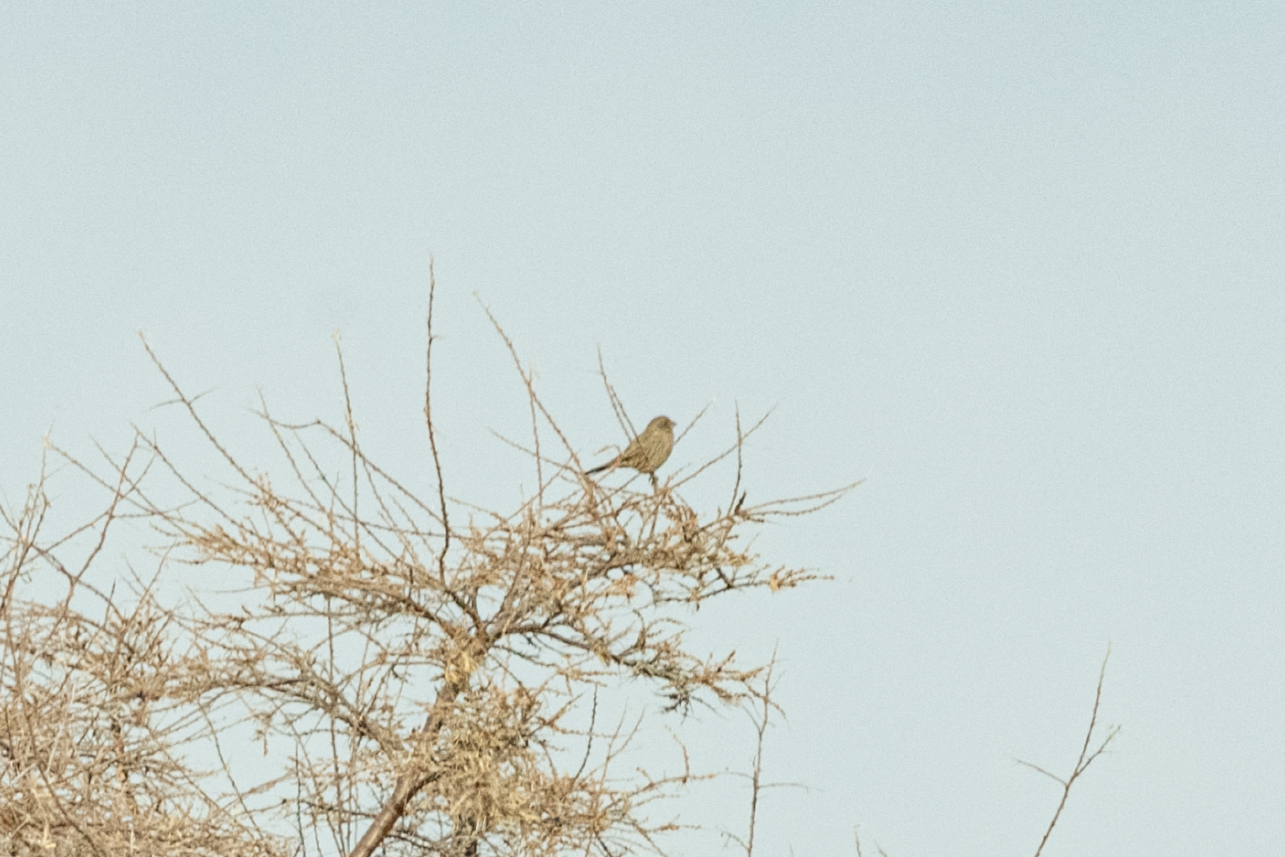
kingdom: Animalia
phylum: Chordata
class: Aves
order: Passeriformes
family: Fringillidae
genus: Leucosticte
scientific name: Leucosticte nemoricola
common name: Plain mountain finch
